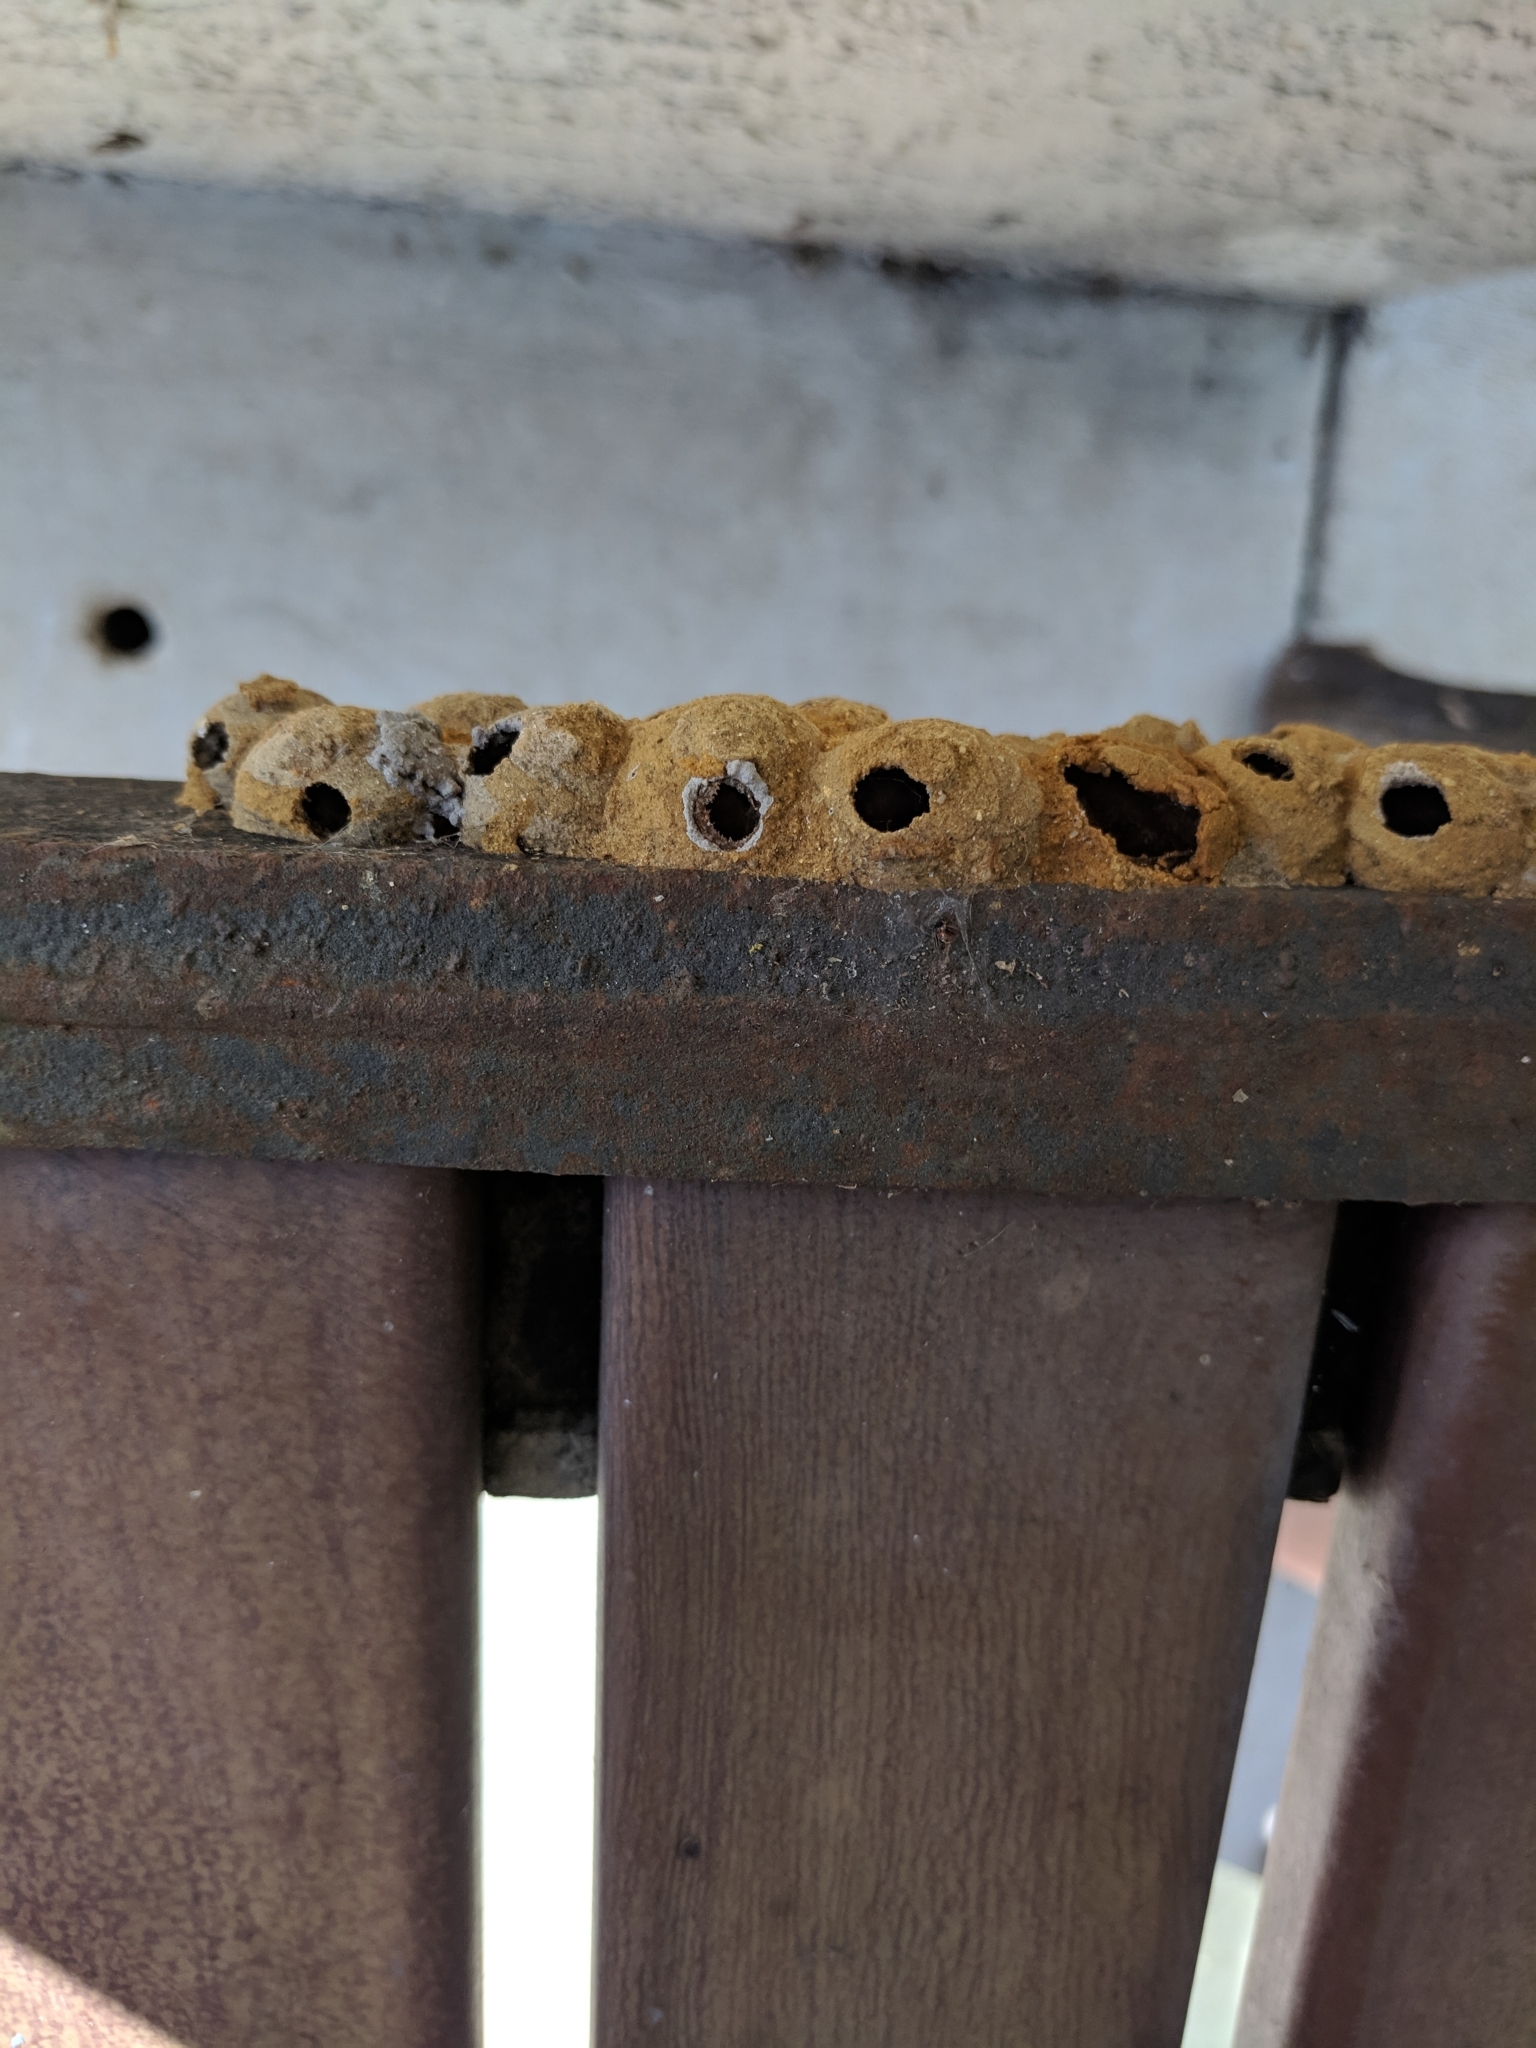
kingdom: Animalia
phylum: Arthropoda
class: Insecta
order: Hymenoptera
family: Eumenidae
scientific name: Eumenidae
